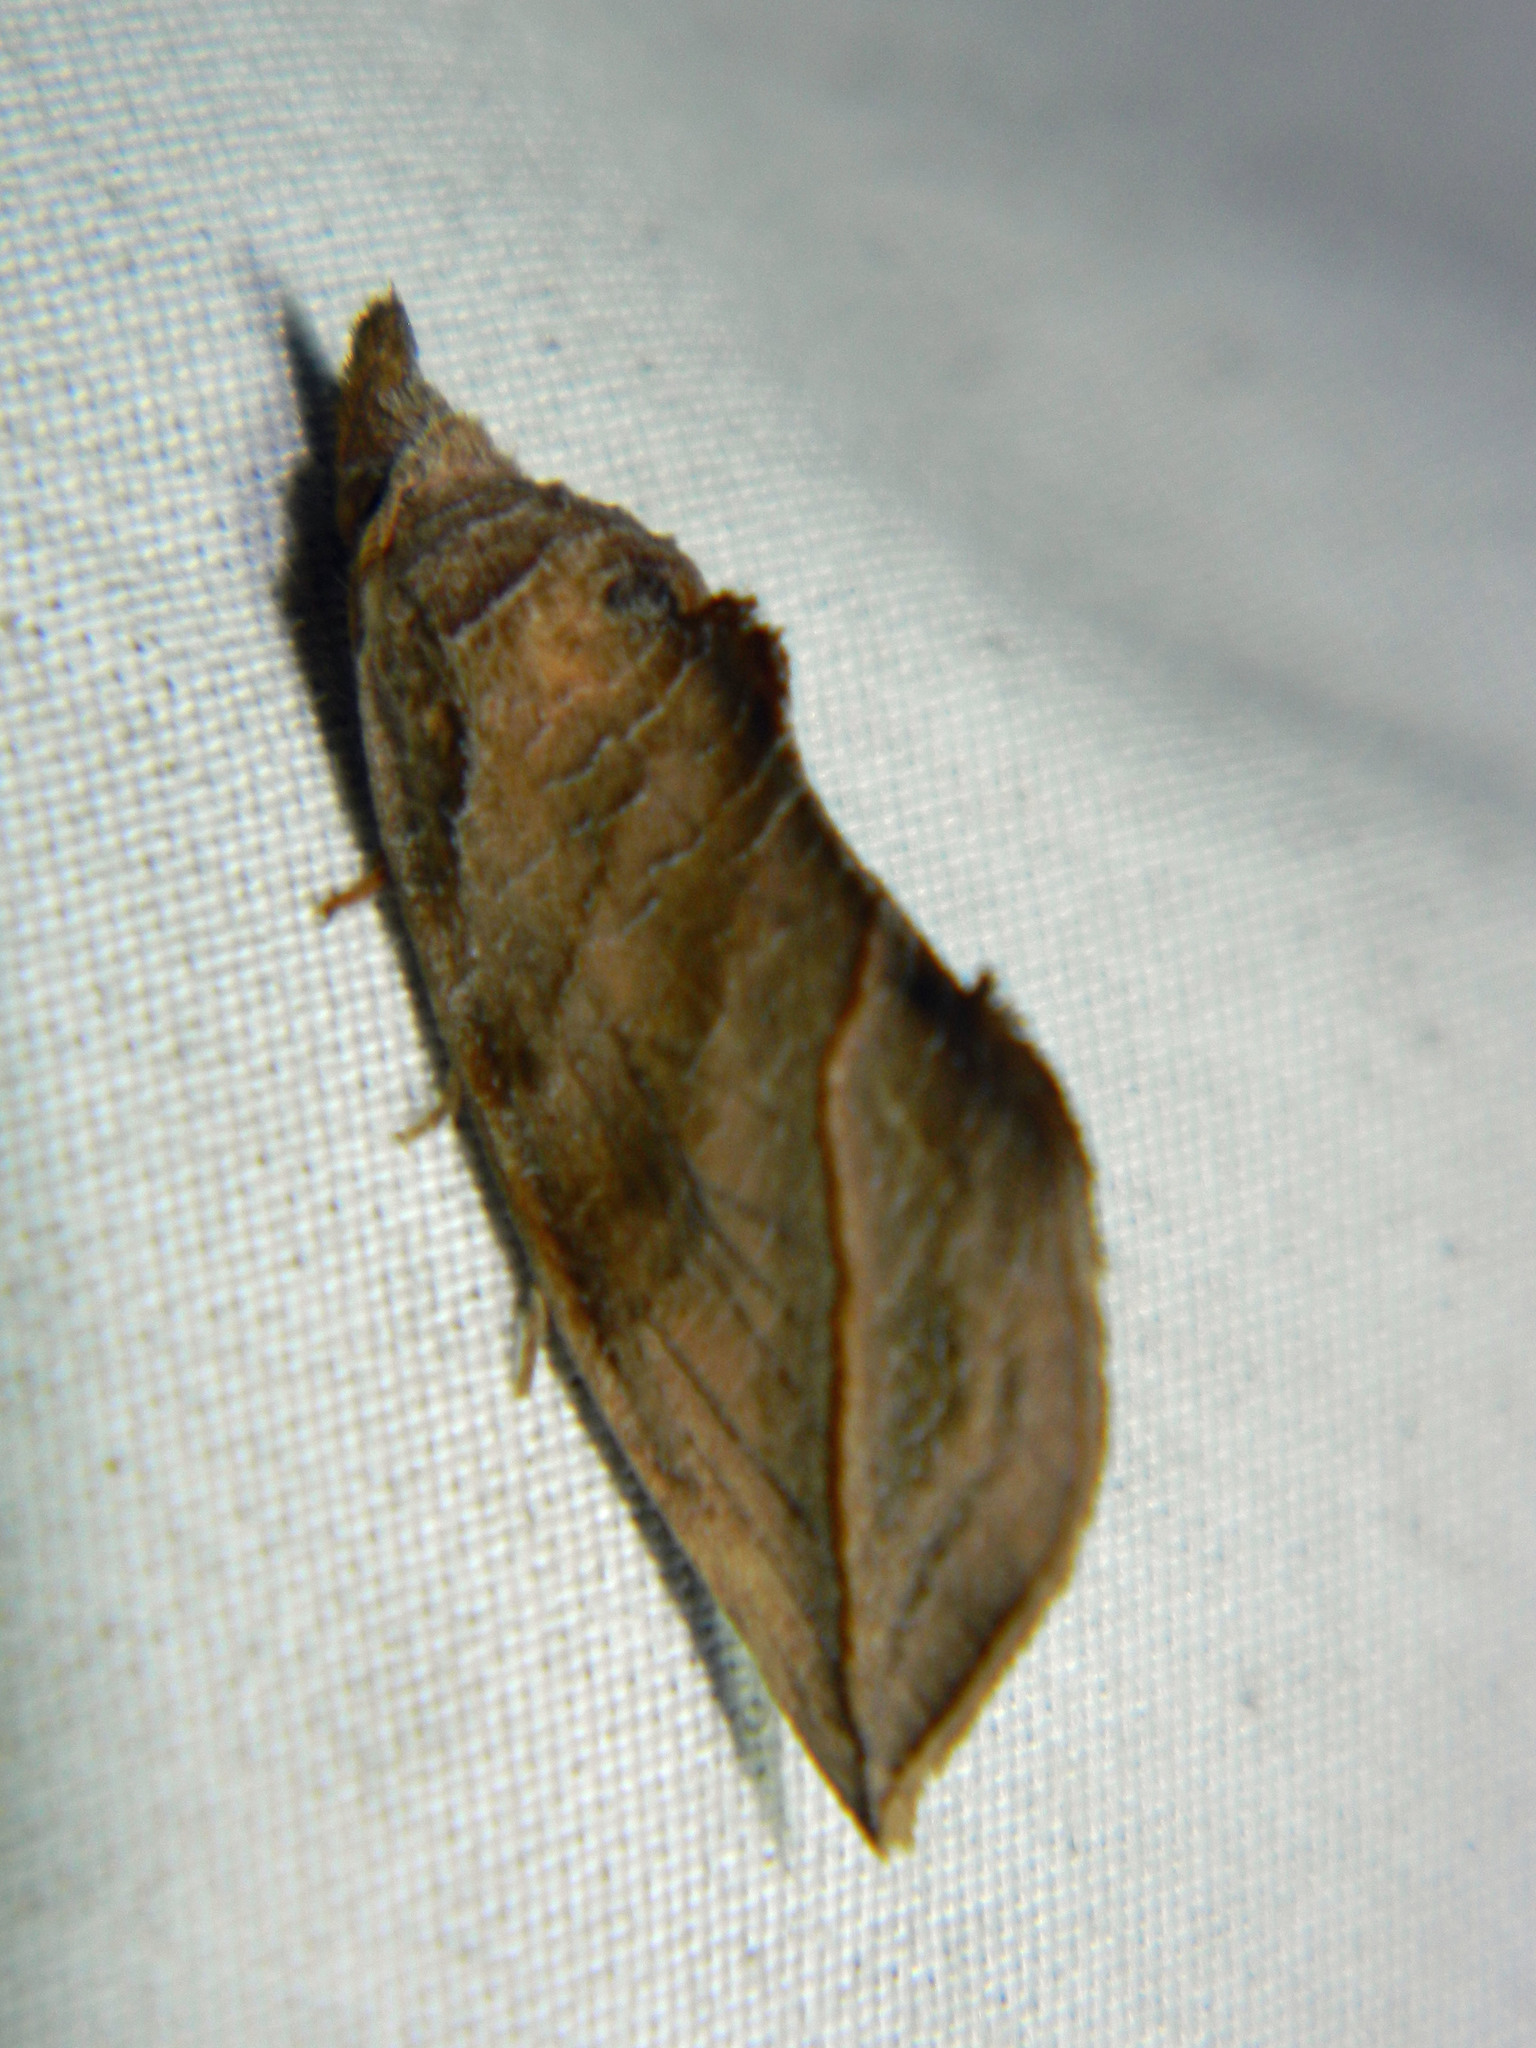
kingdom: Animalia
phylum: Arthropoda
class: Insecta
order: Lepidoptera
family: Erebidae
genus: Calyptra
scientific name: Calyptra canadensis
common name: Canadian owlet
